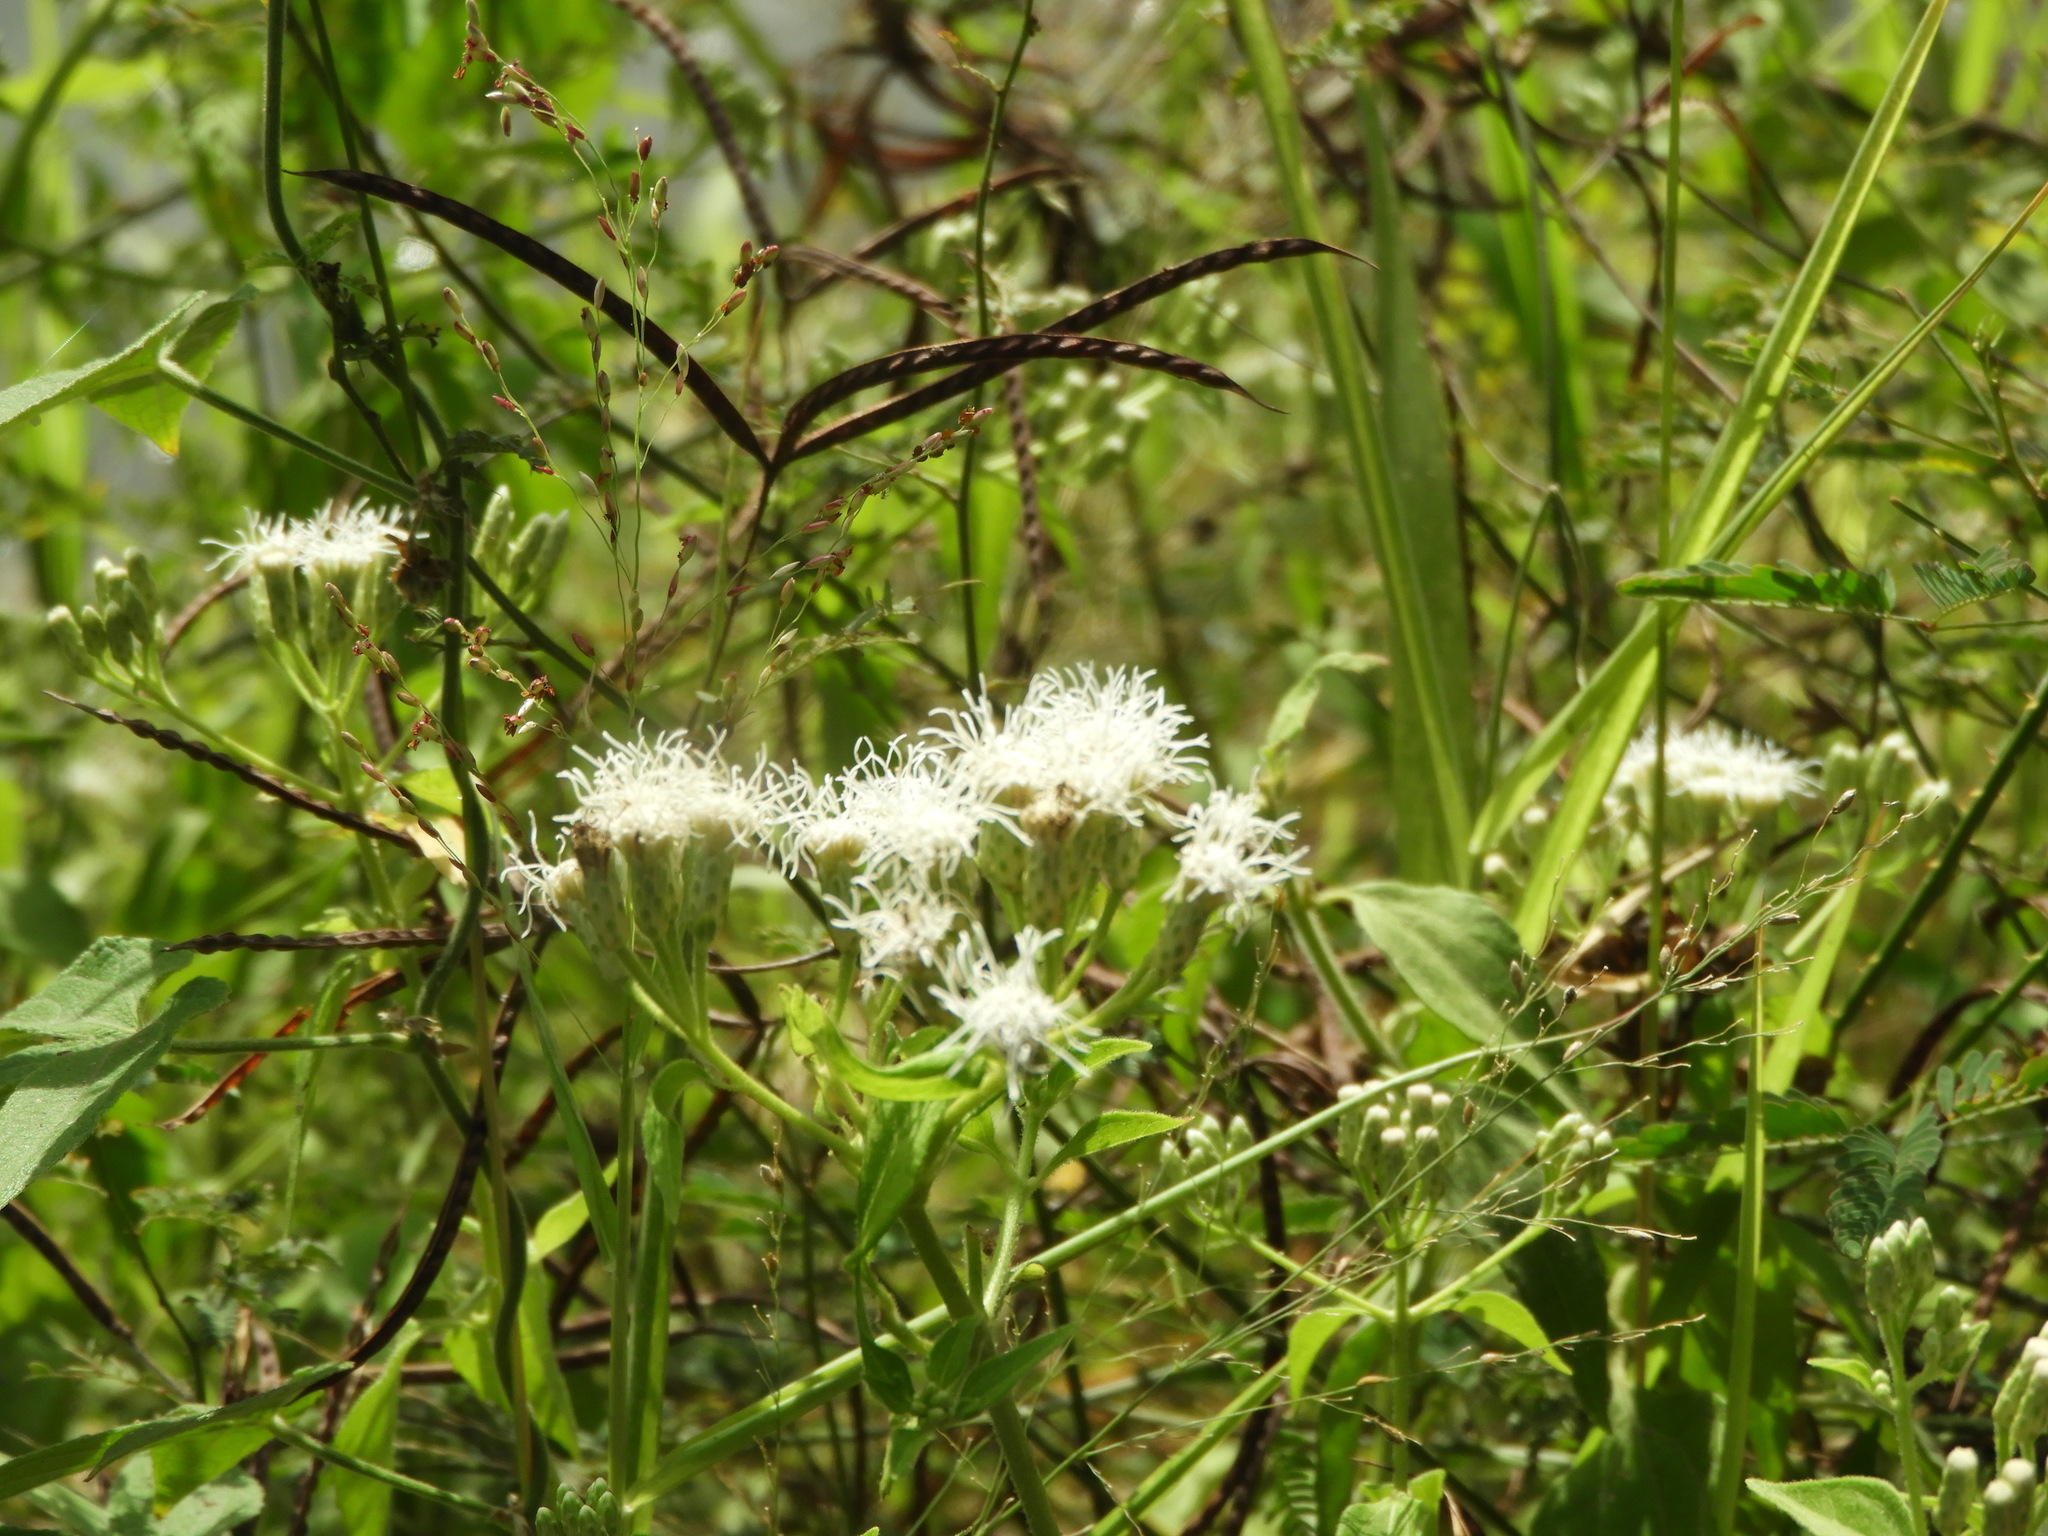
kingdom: Plantae
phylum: Tracheophyta
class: Magnoliopsida
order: Asterales
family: Asteraceae
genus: Chromolaena
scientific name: Chromolaena odorata
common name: Siamweed
